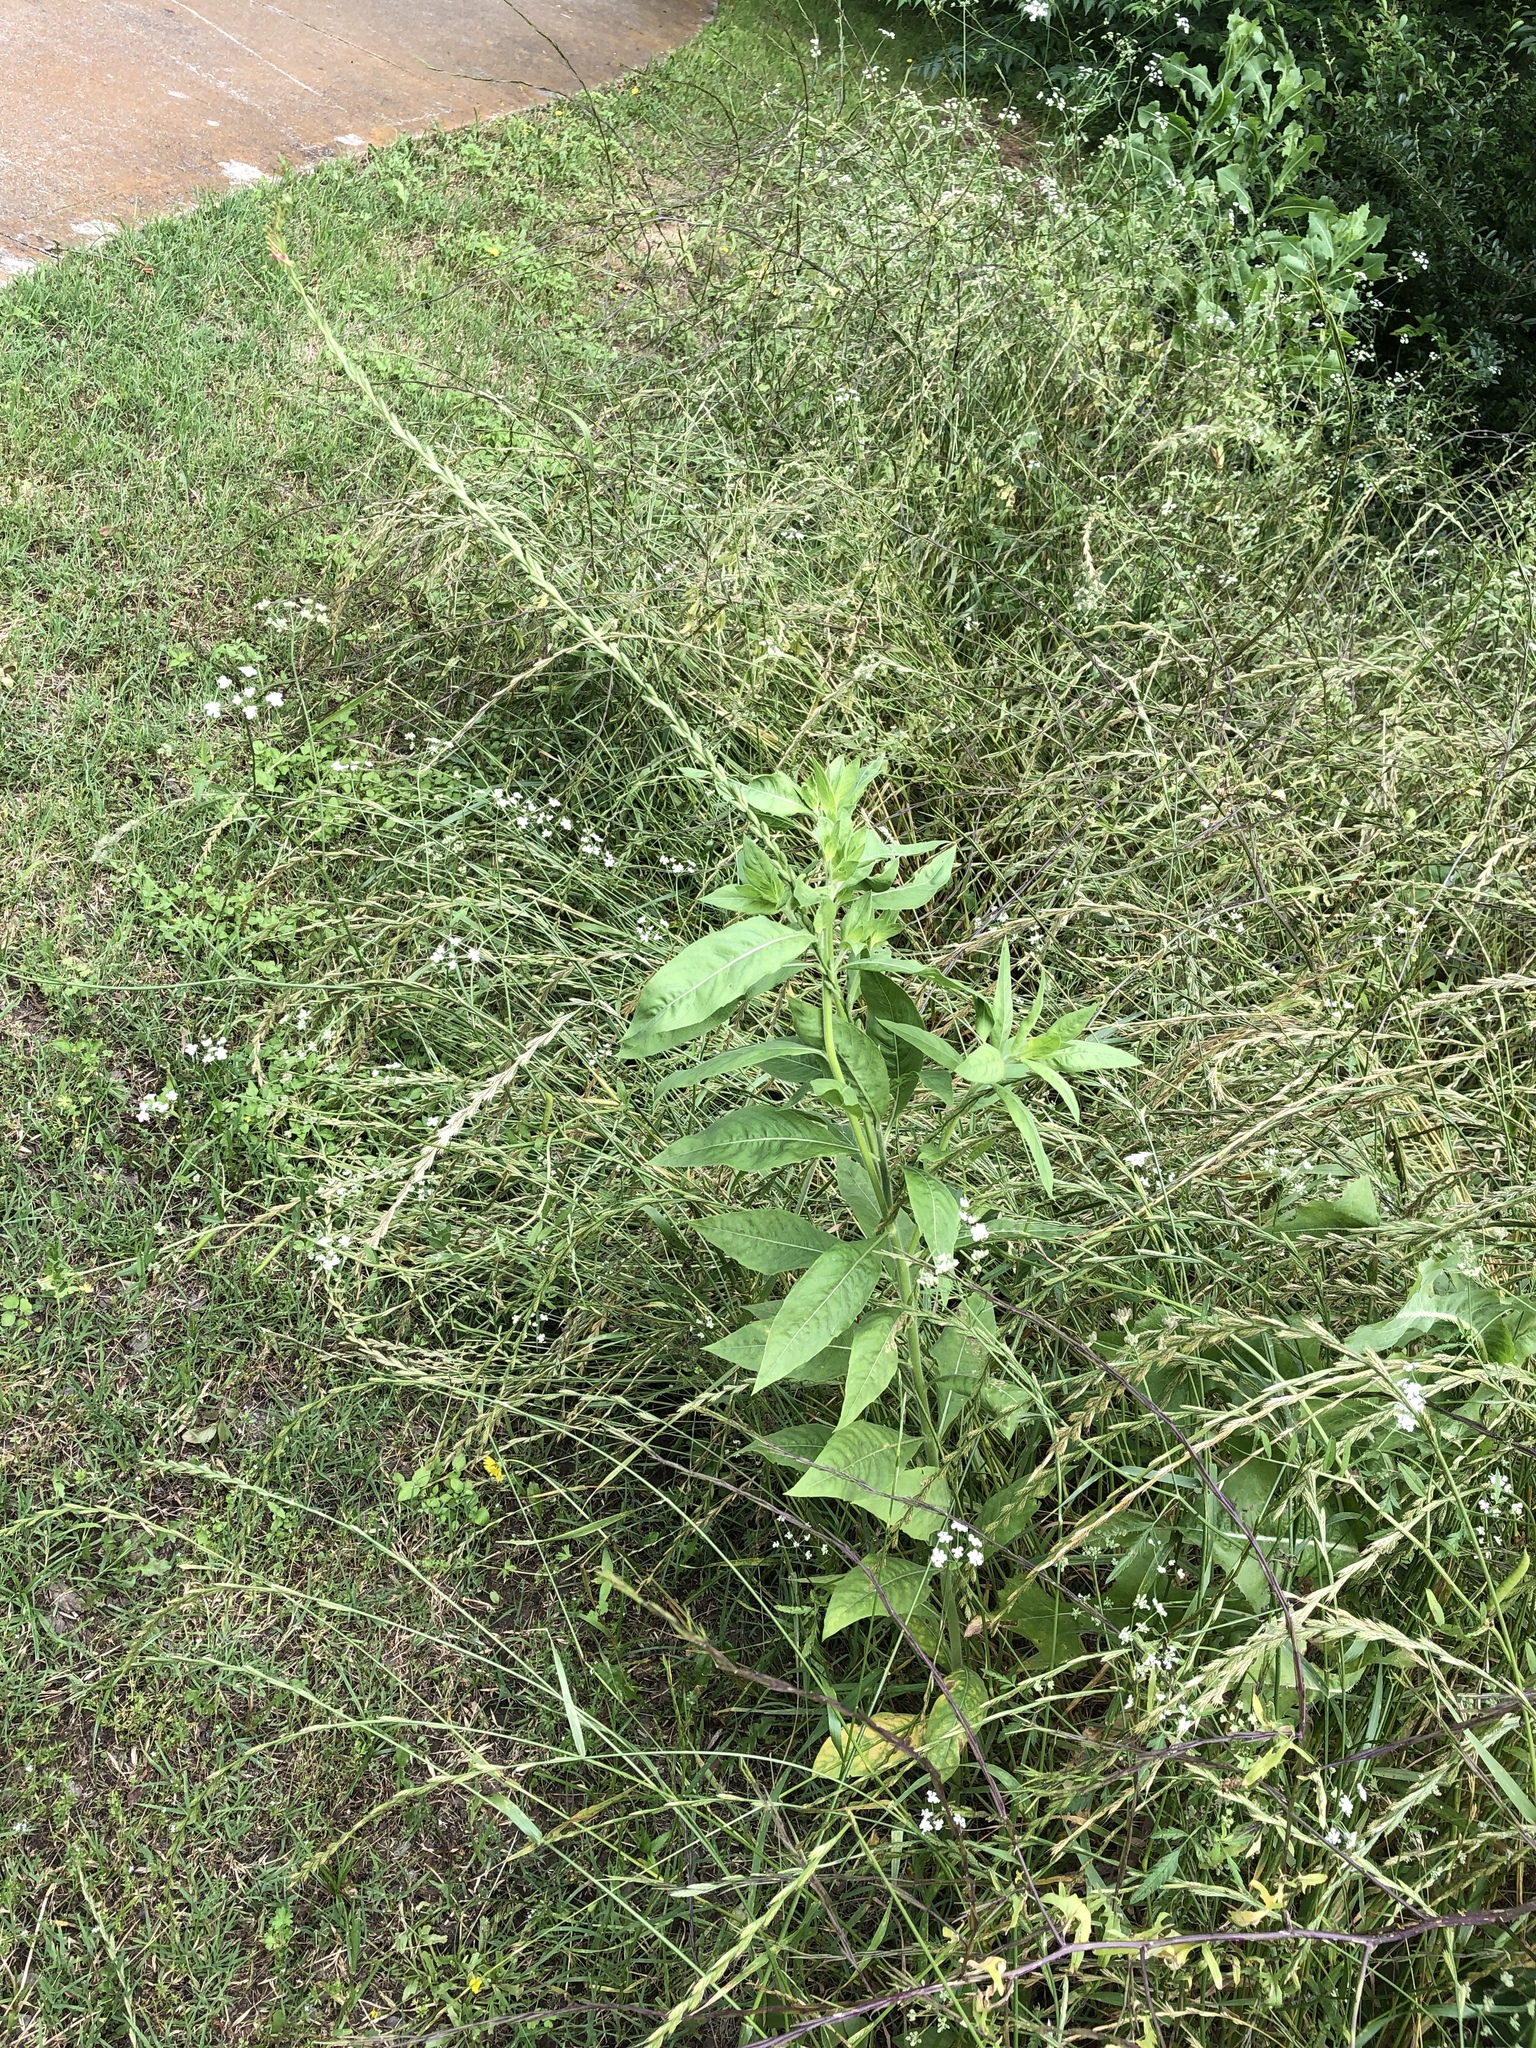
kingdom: Plantae
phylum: Tracheophyta
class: Magnoliopsida
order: Myrtales
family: Onagraceae
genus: Oenothera
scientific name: Oenothera curtiflora
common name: Velvetweed
